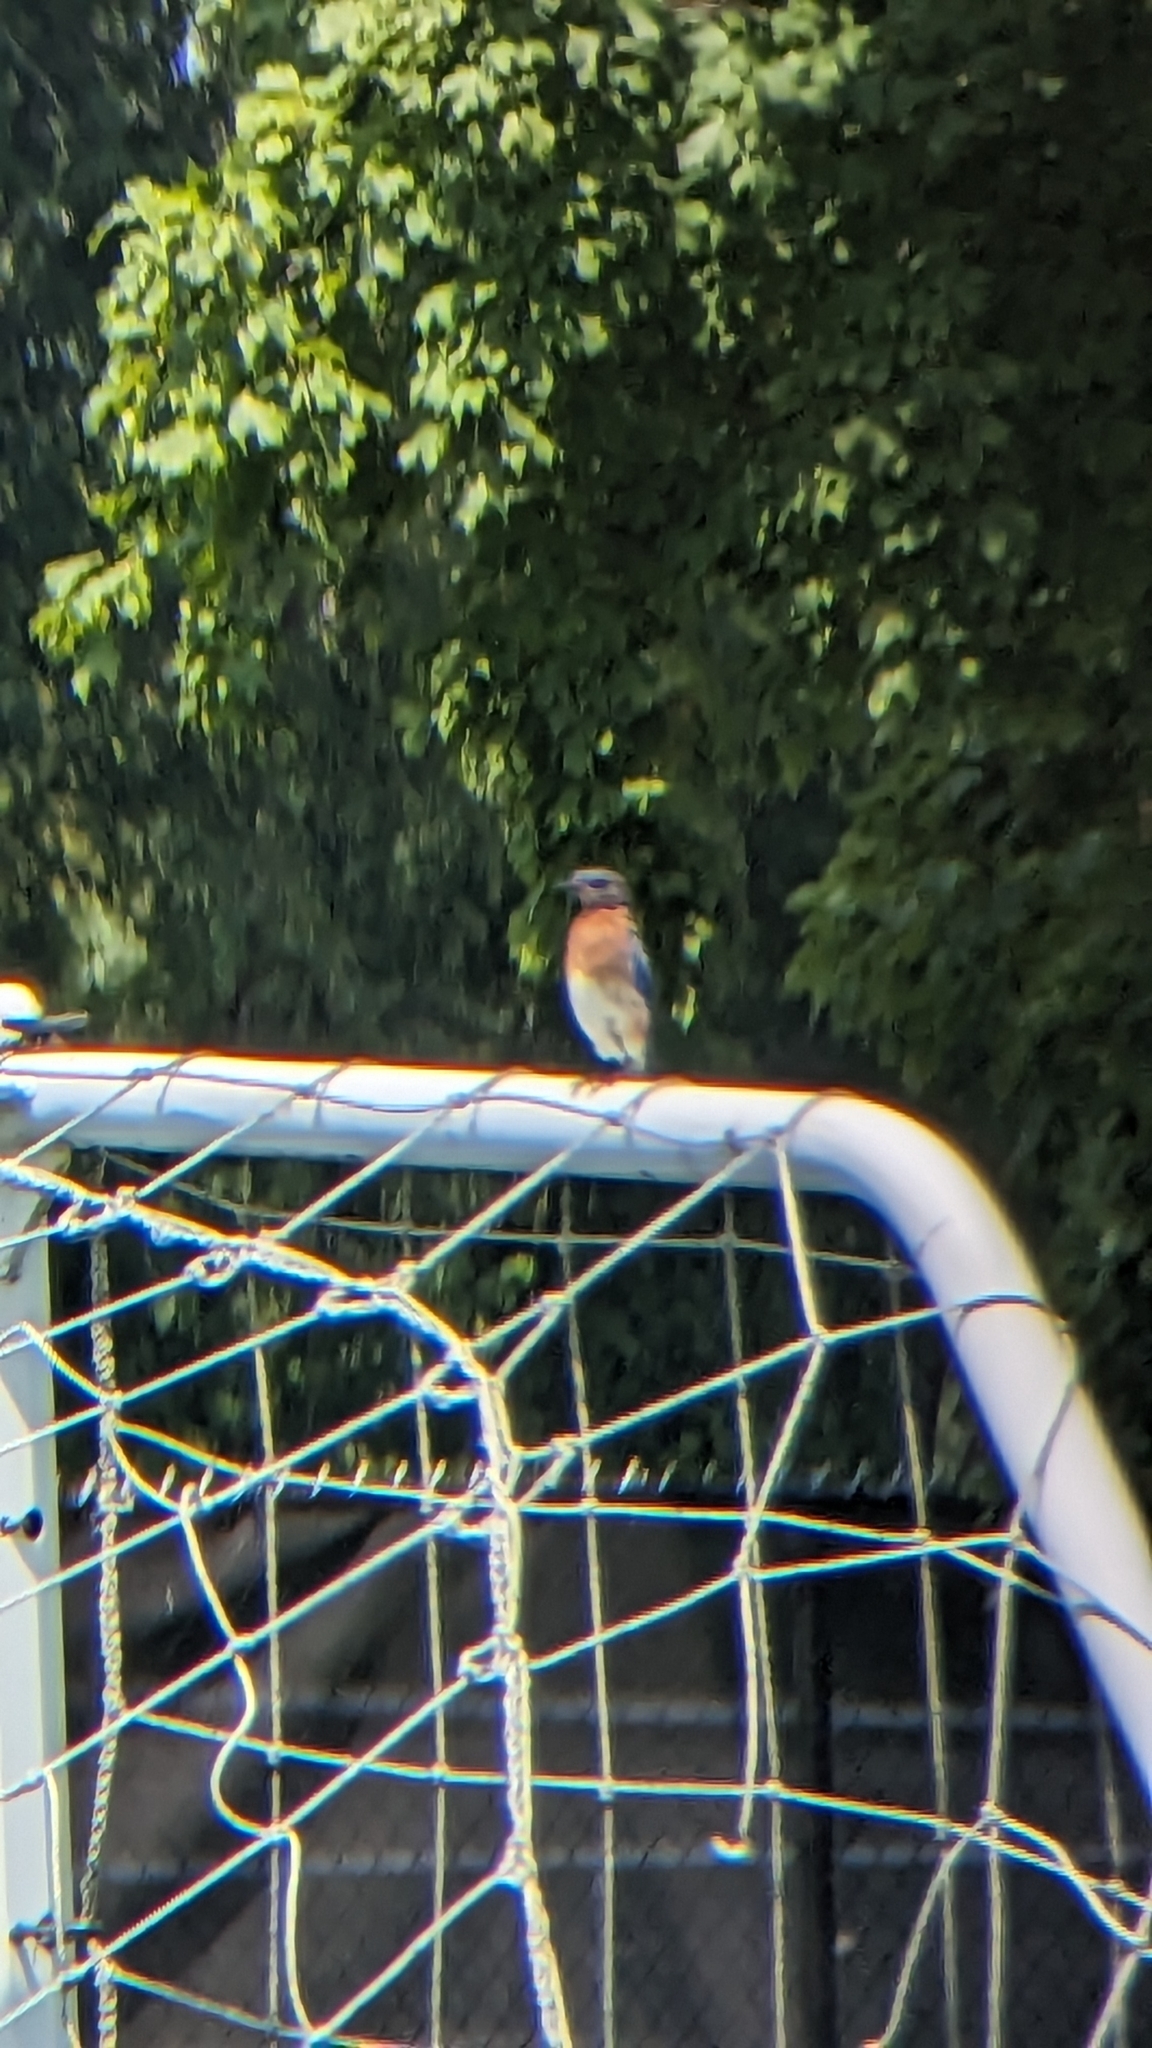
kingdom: Animalia
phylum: Chordata
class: Aves
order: Passeriformes
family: Turdidae
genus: Sialia
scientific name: Sialia sialis
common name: Eastern bluebird
